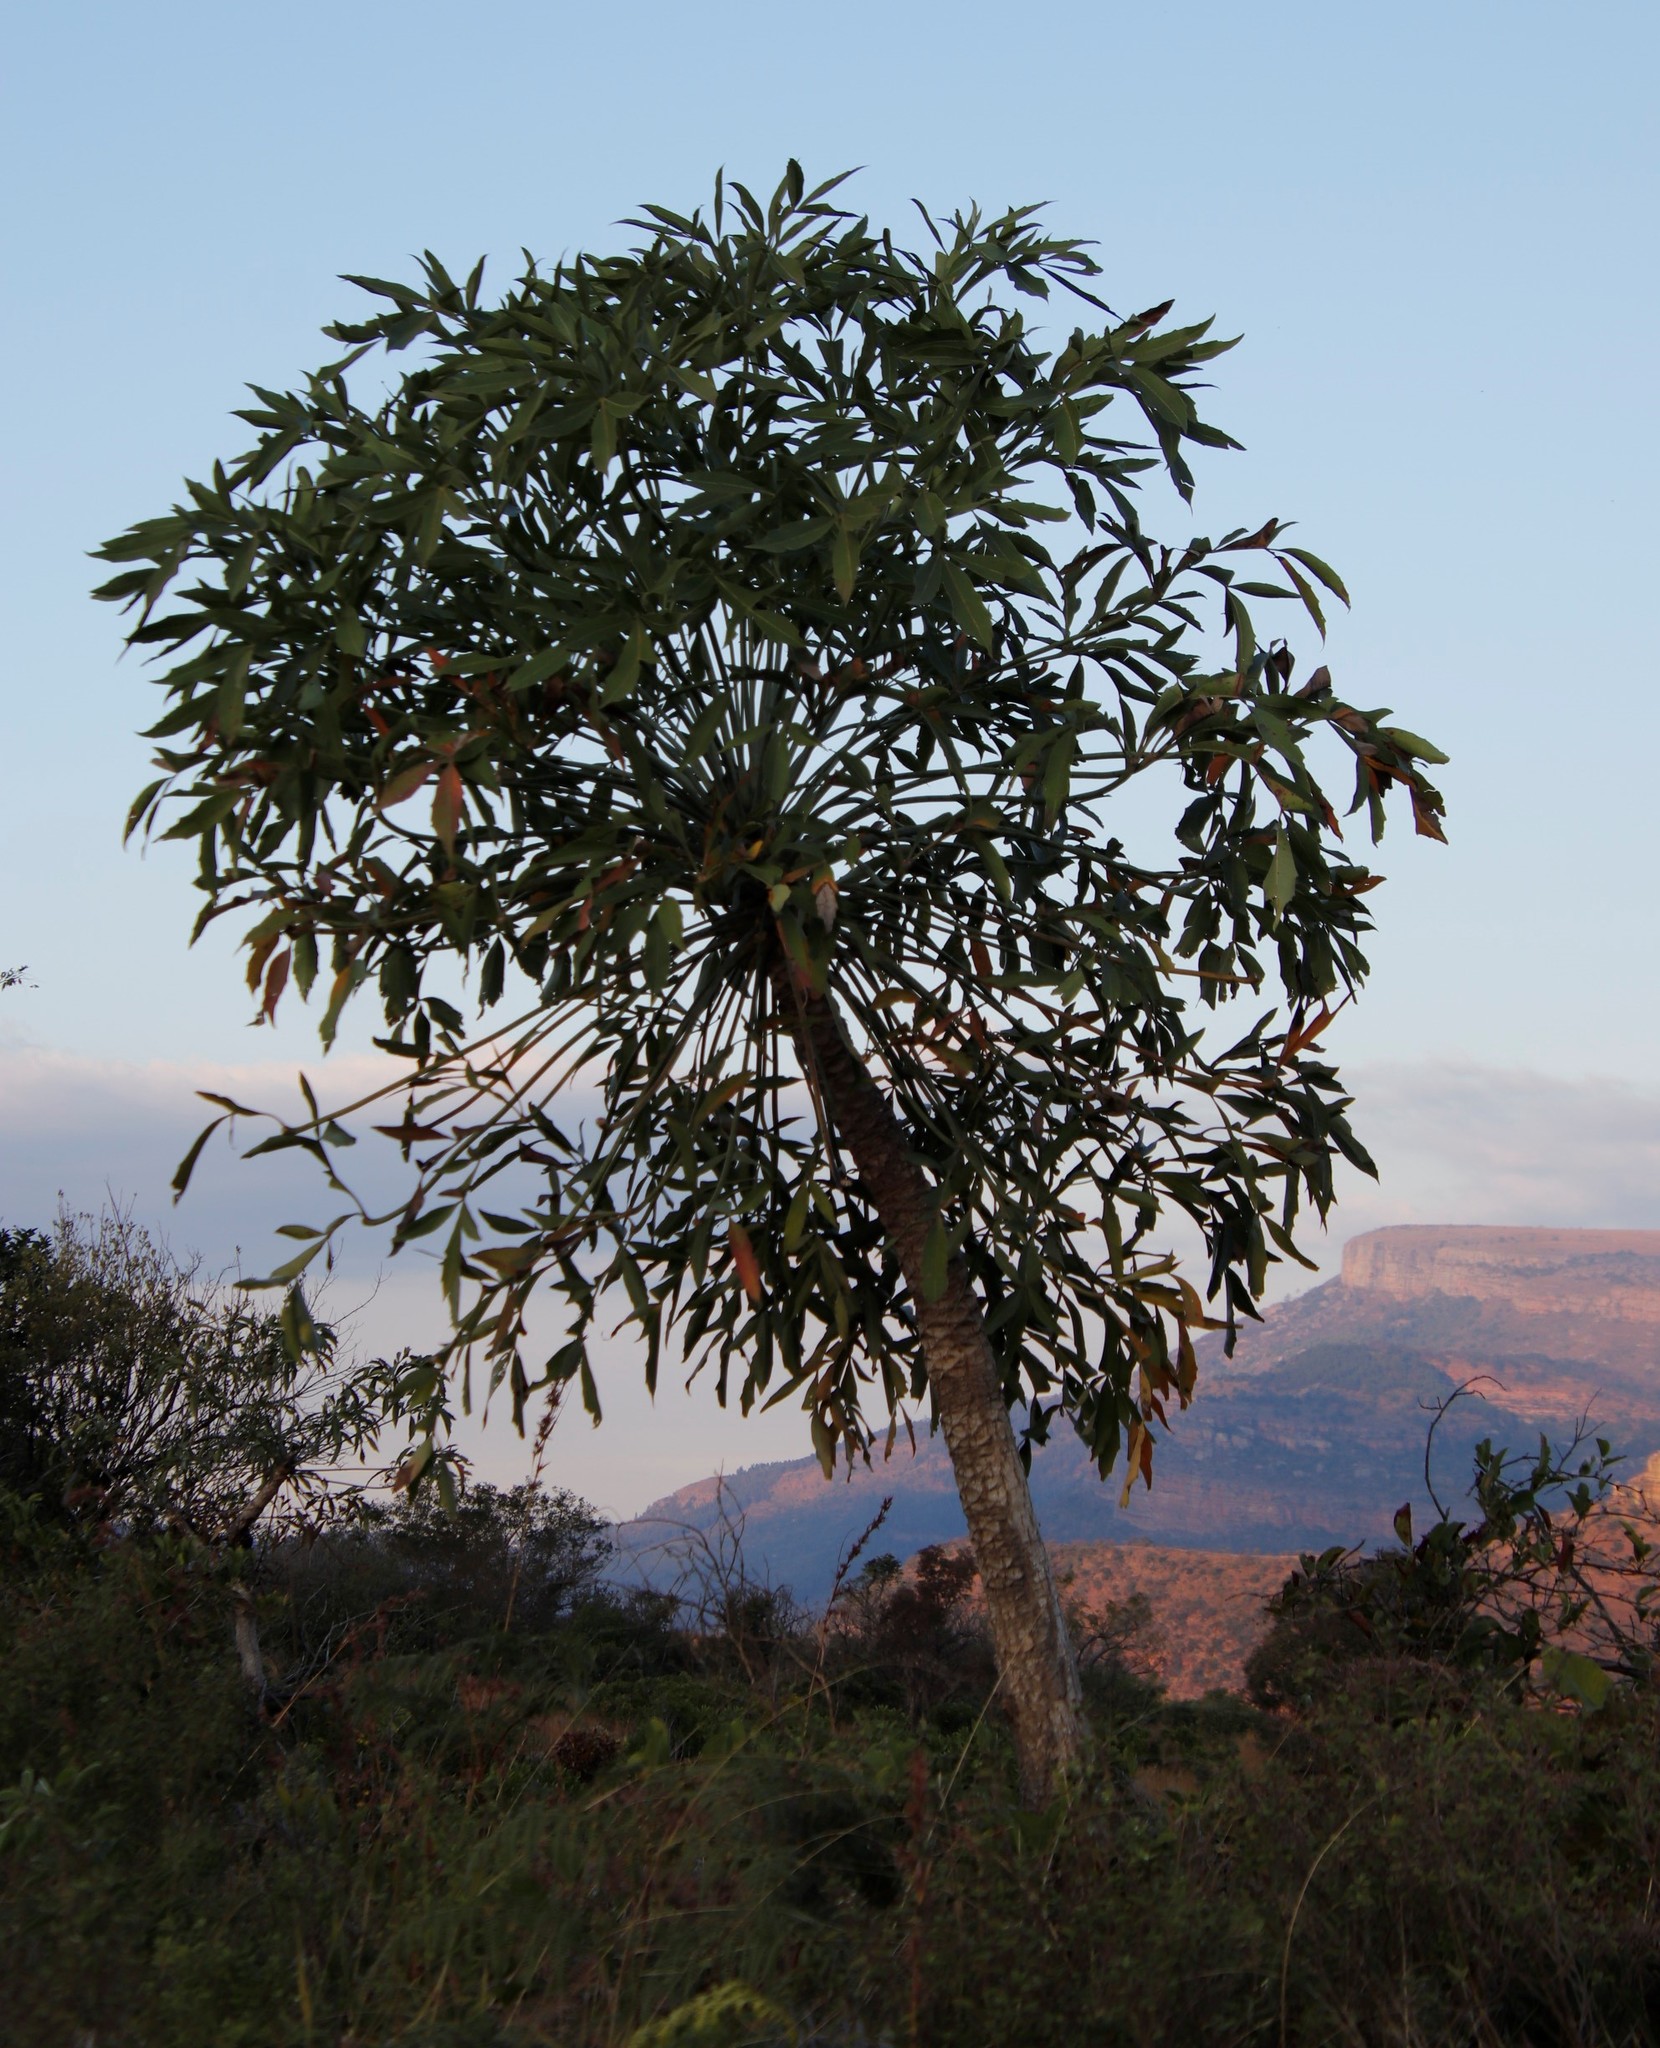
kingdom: Plantae
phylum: Tracheophyta
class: Magnoliopsida
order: Apiales
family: Araliaceae
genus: Cussonia
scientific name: Cussonia spicata
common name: Common cabbagetree
